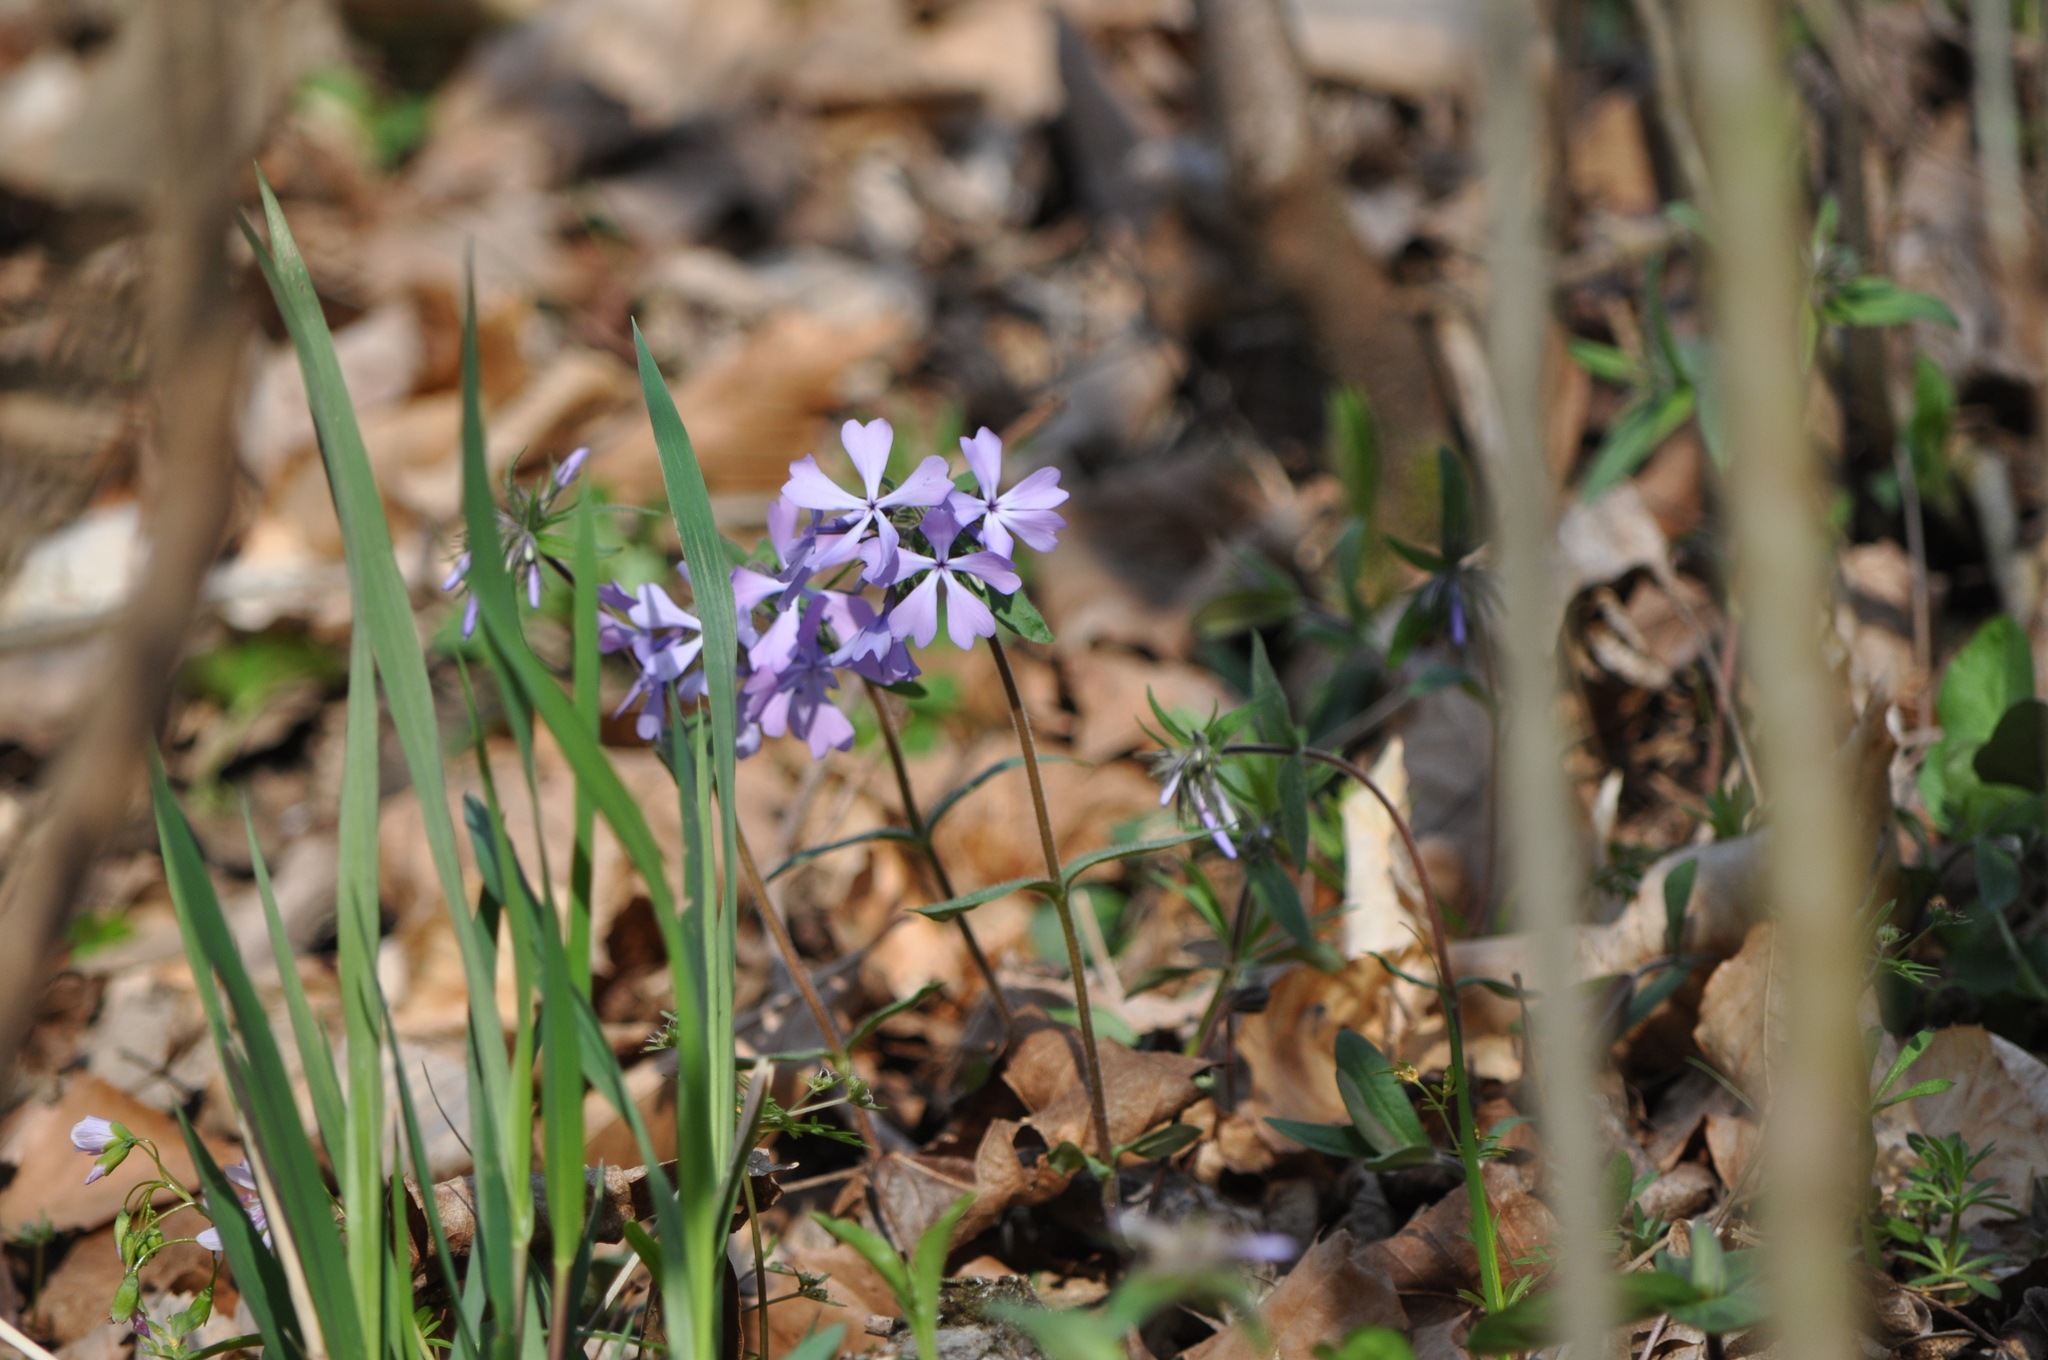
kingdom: Plantae
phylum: Tracheophyta
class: Magnoliopsida
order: Ericales
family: Polemoniaceae
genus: Phlox
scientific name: Phlox divaricata
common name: Blue phlox
